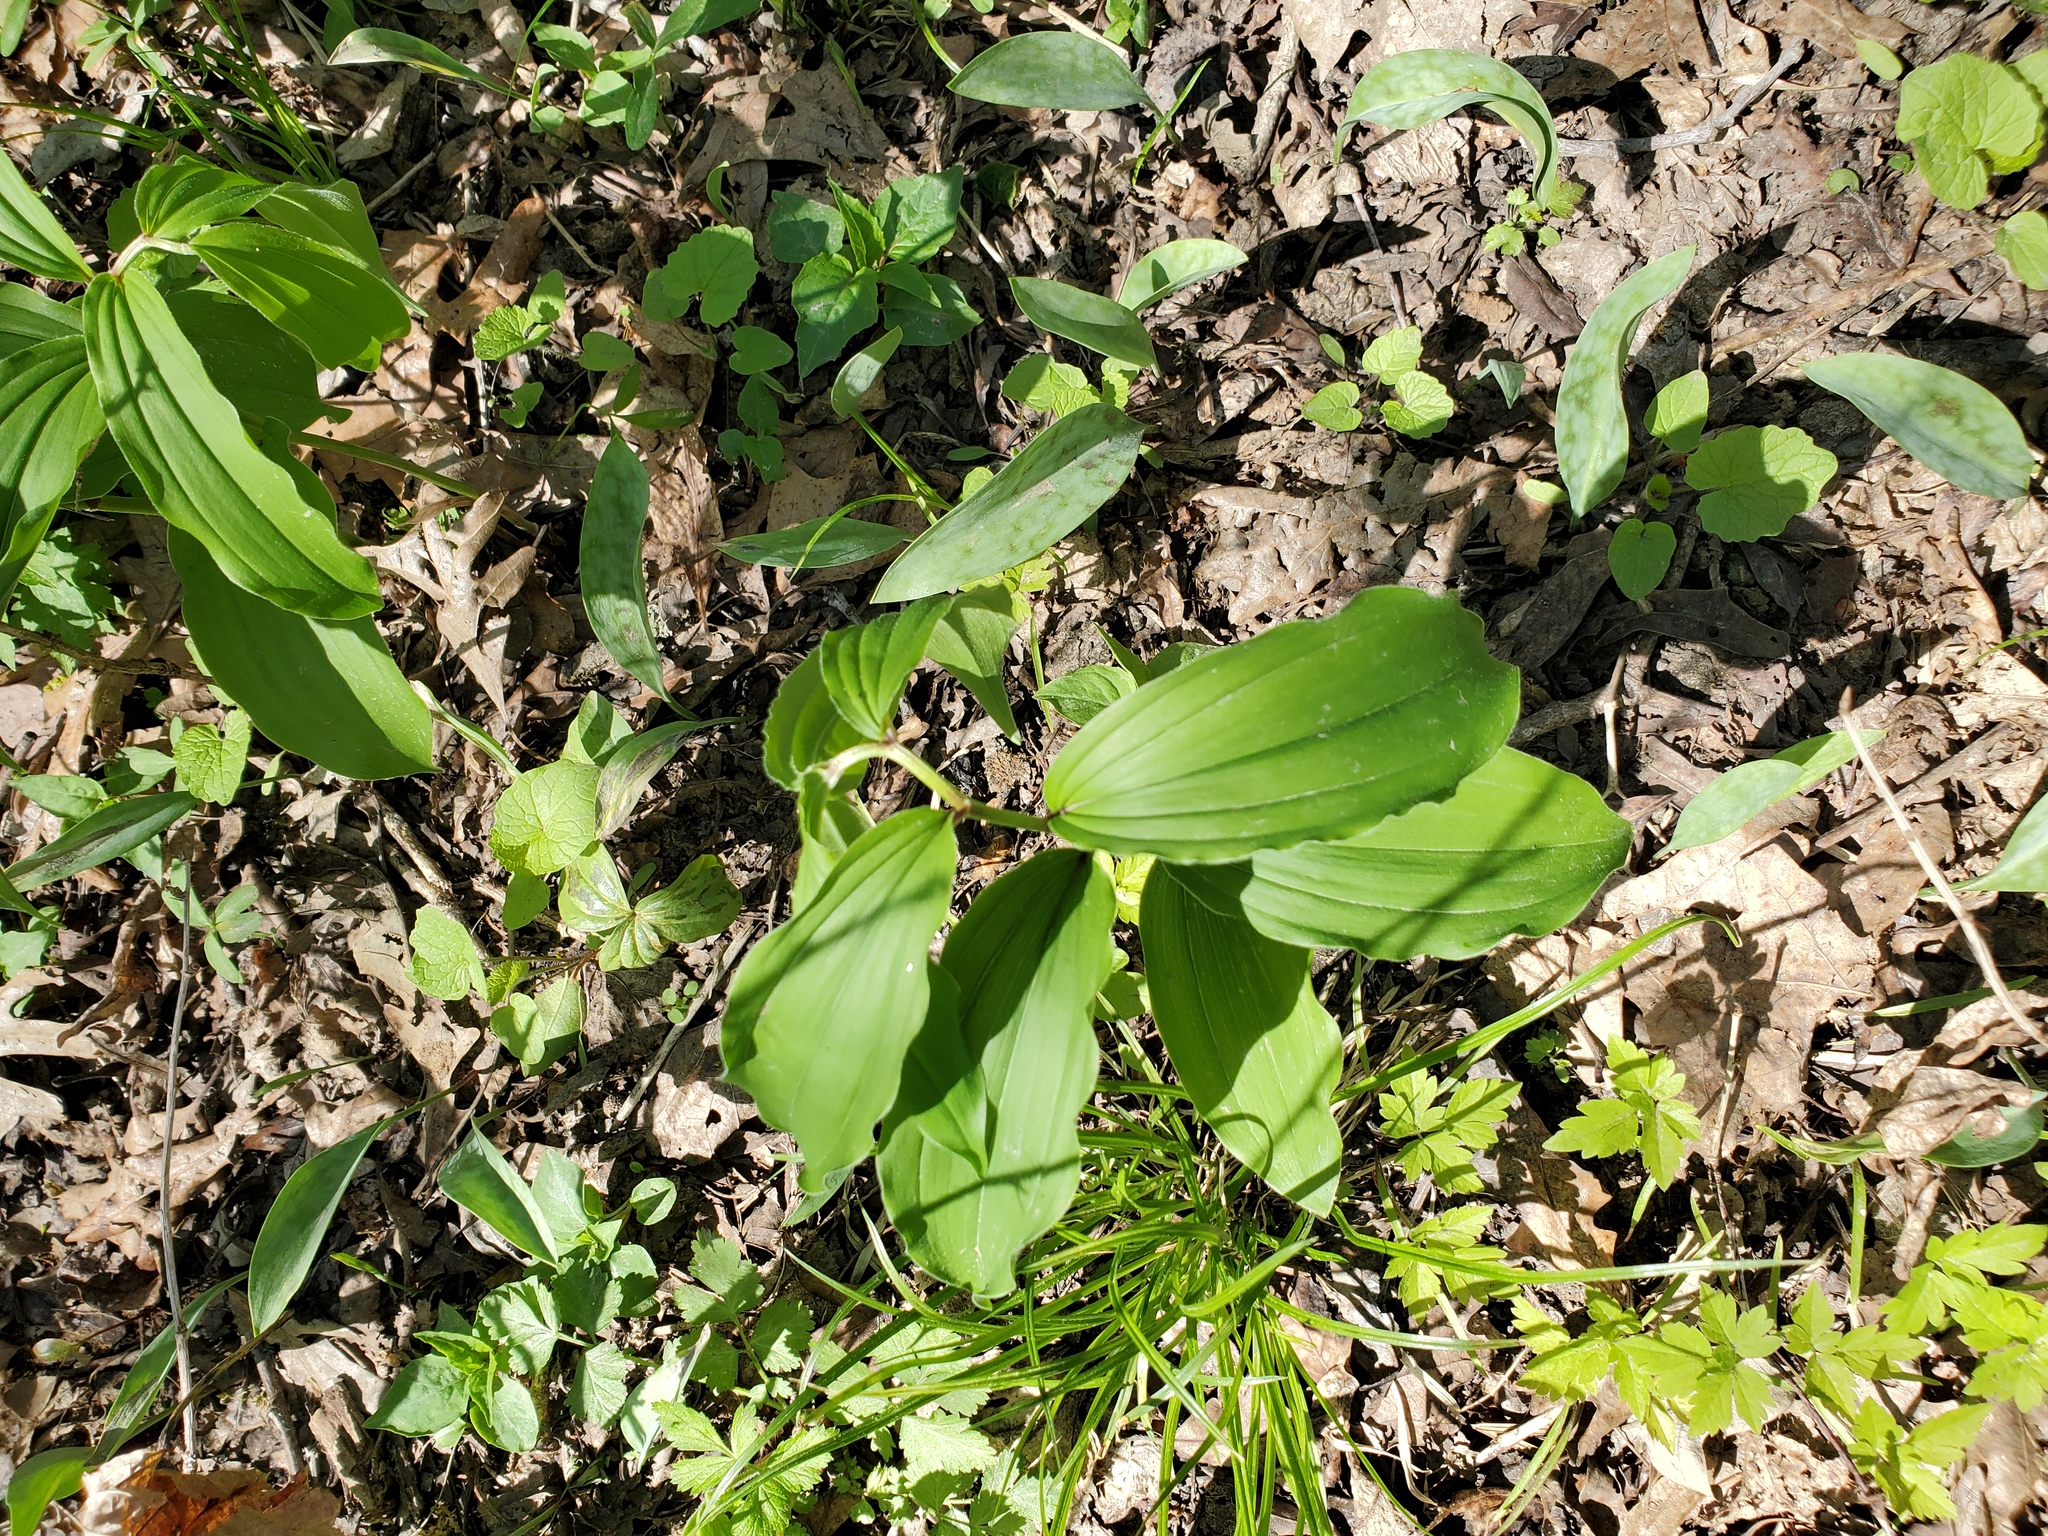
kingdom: Plantae
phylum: Tracheophyta
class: Liliopsida
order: Asparagales
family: Asparagaceae
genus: Maianthemum
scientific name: Maianthemum racemosum
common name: False spikenard
